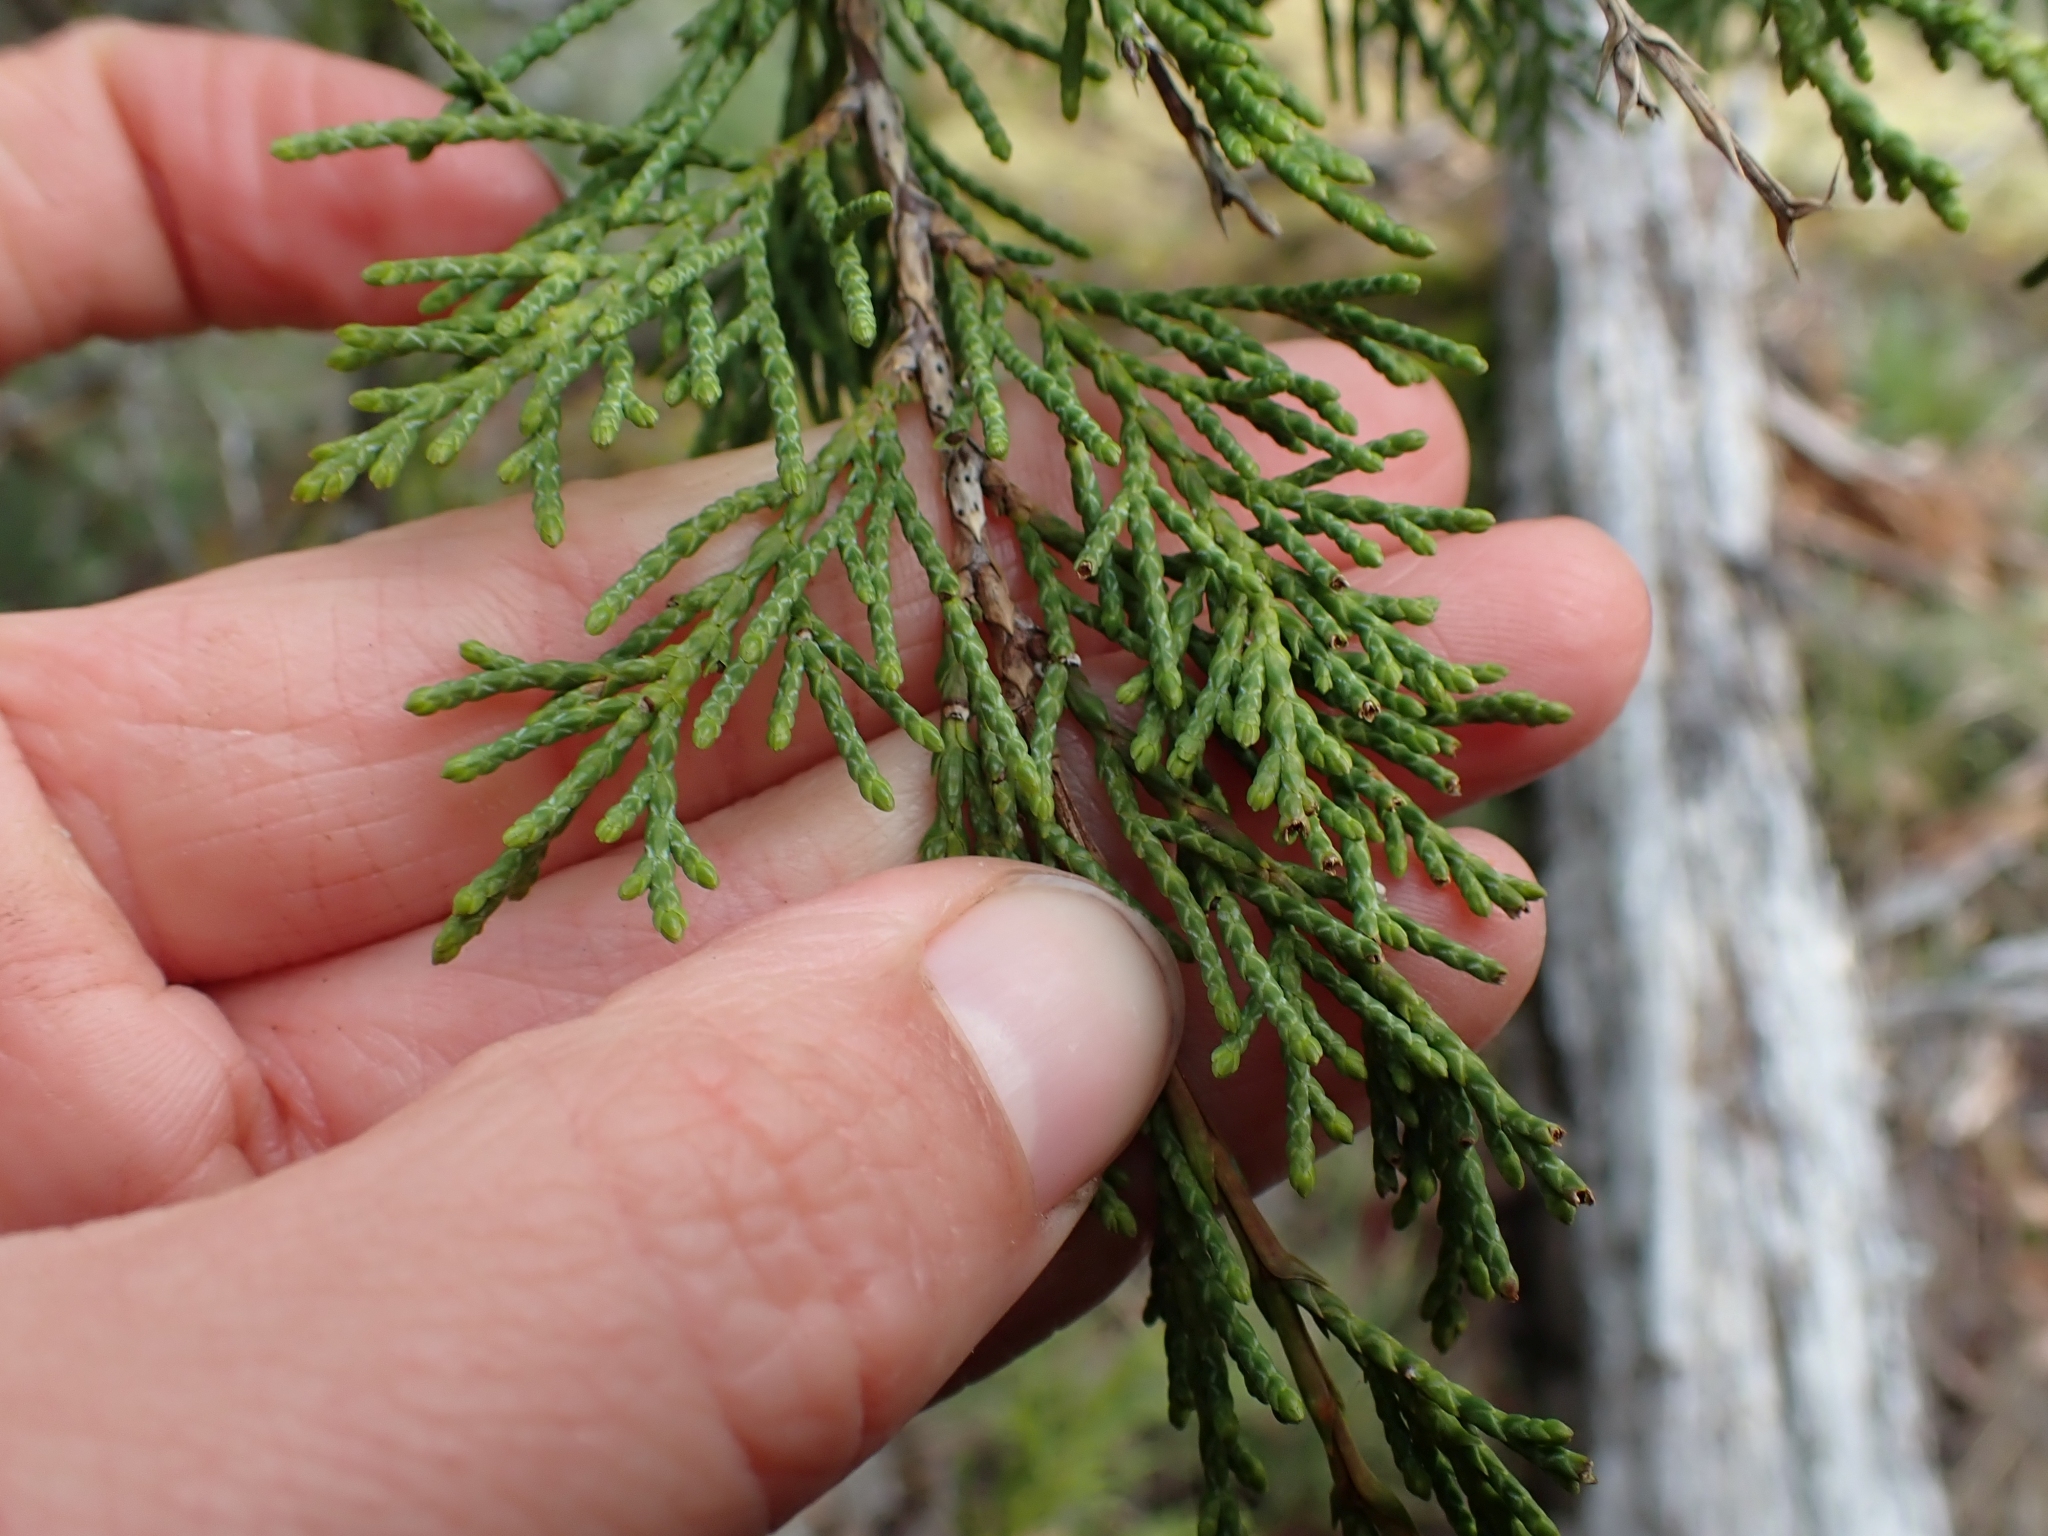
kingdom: Plantae
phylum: Tracheophyta
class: Pinopsida
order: Pinales
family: Cupressaceae
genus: Juniperus
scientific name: Juniperus scopulorum
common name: Rocky mountain juniper
